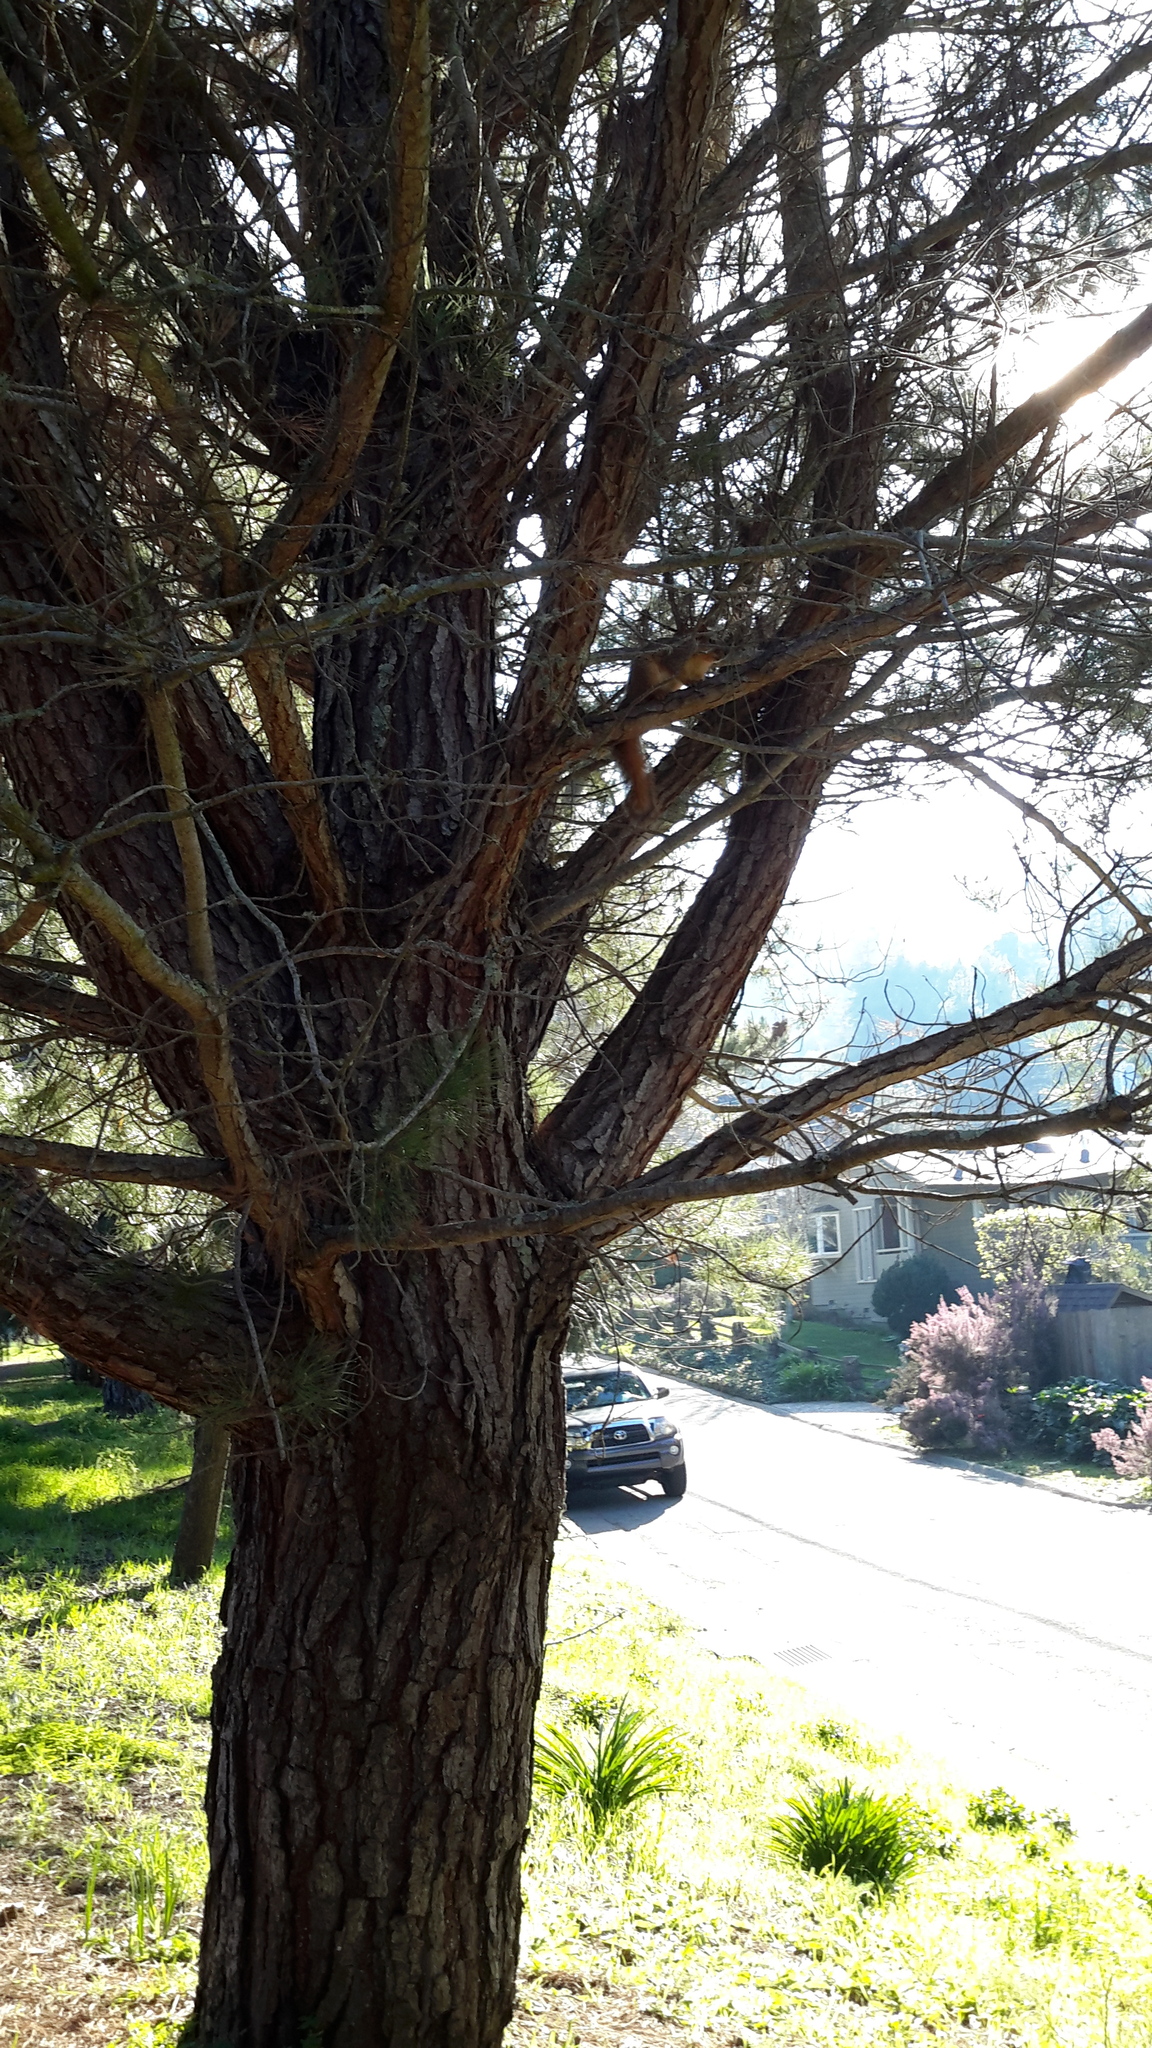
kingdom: Animalia
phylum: Chordata
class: Mammalia
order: Rodentia
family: Sciuridae
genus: Sciurus
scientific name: Sciurus niger
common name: Fox squirrel
